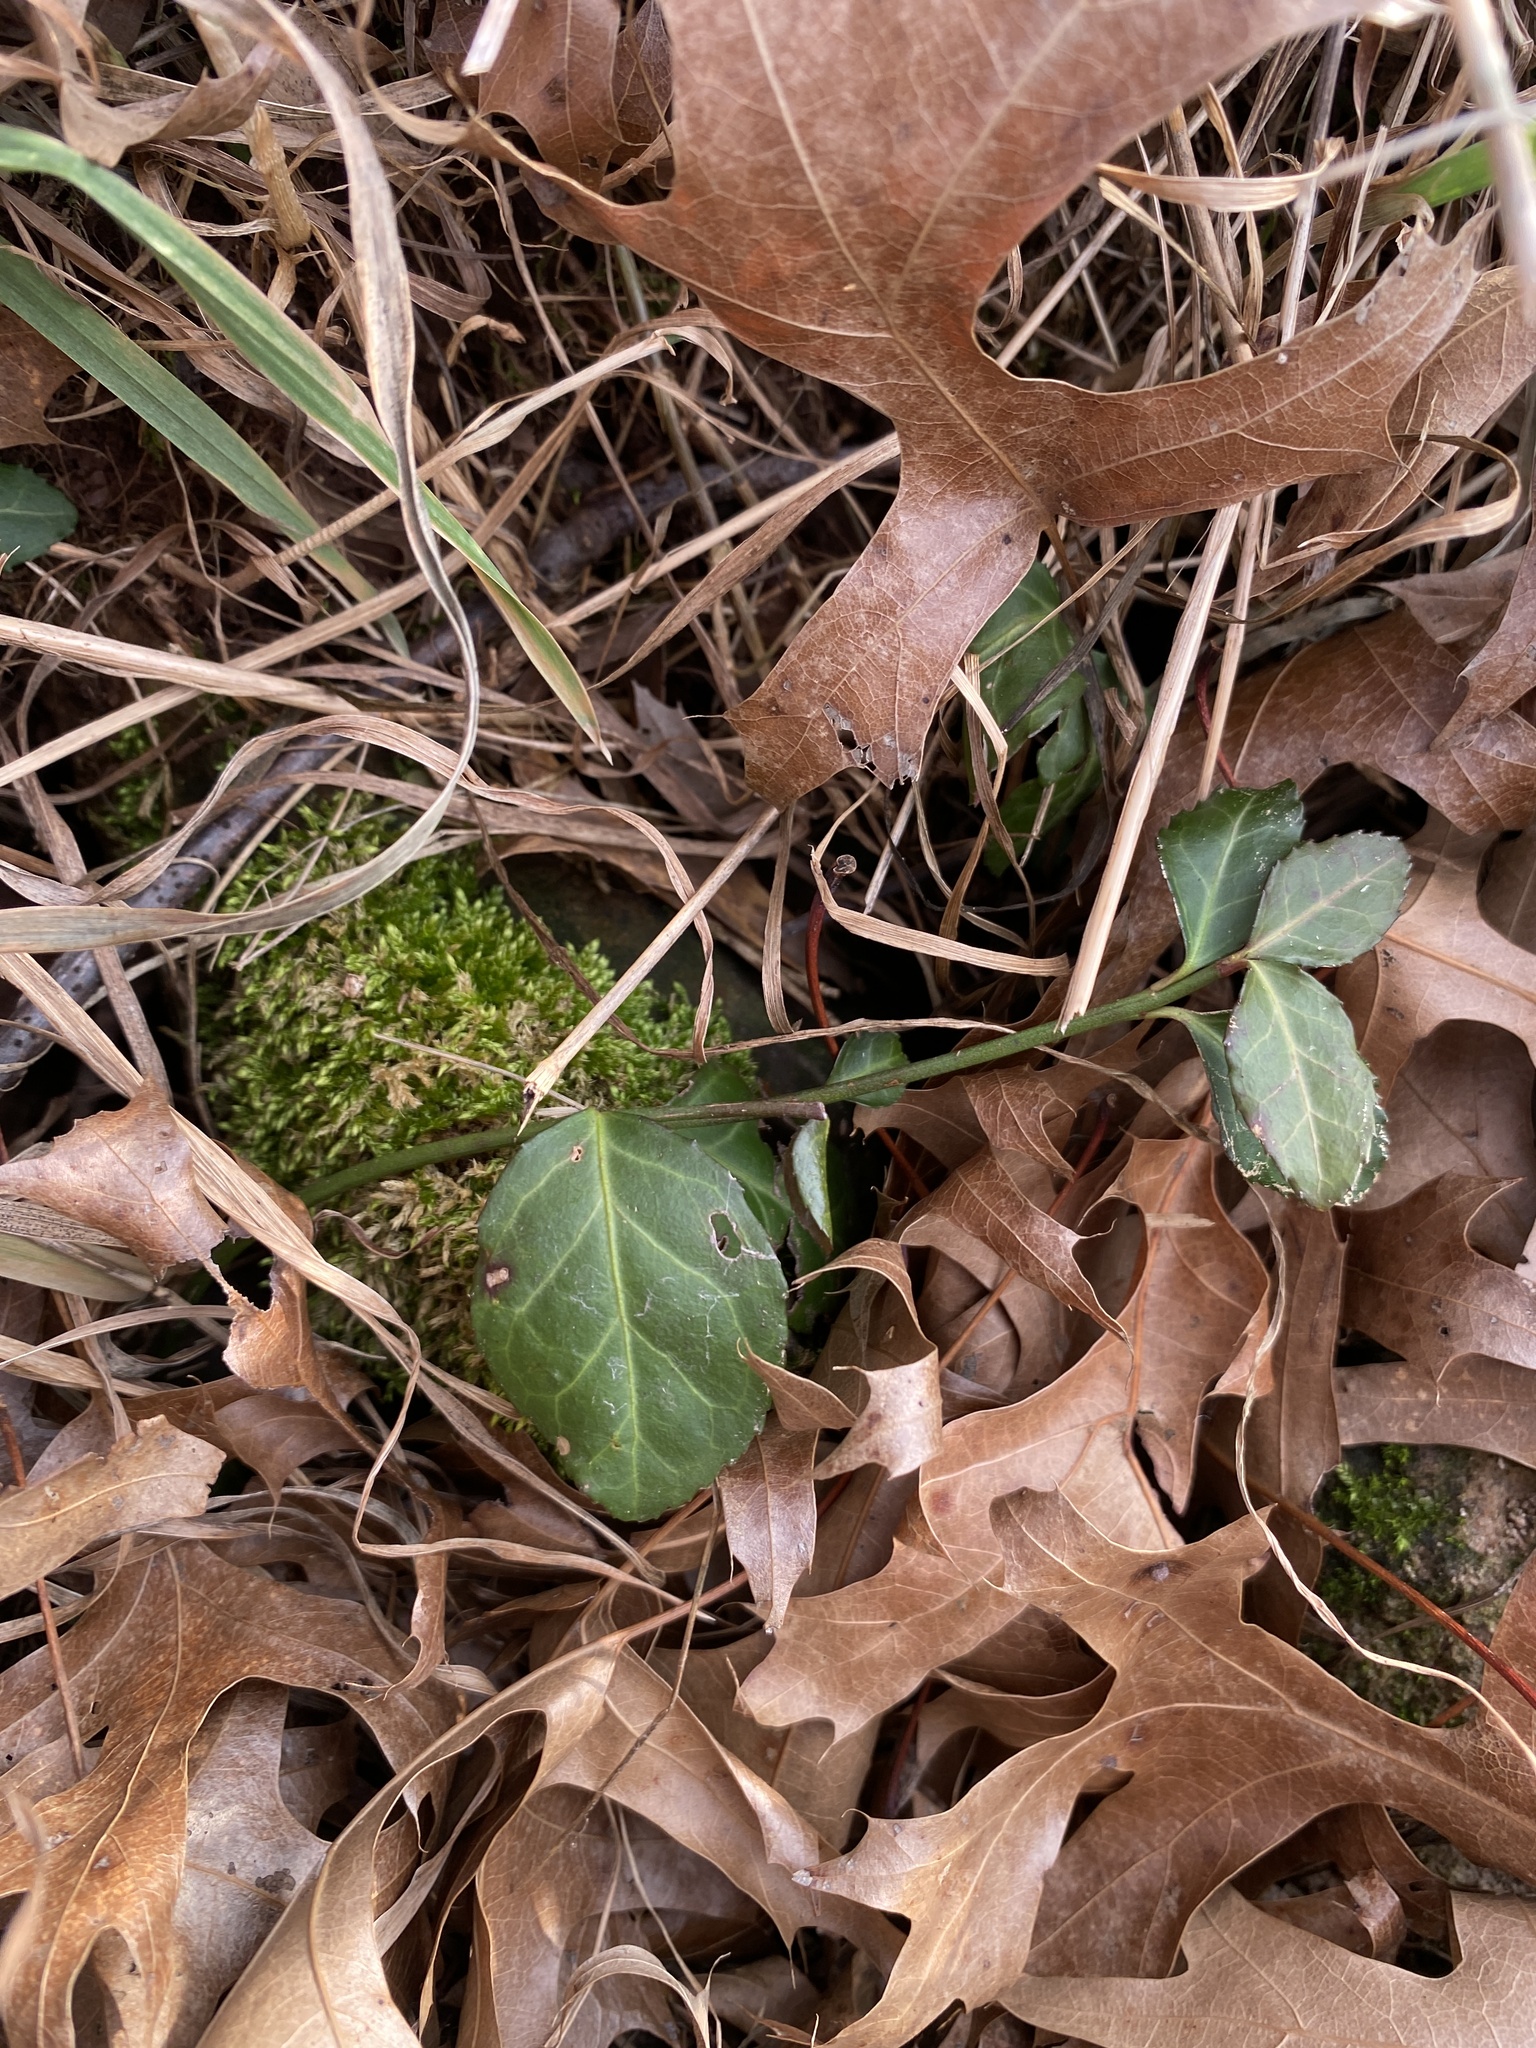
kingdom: Plantae
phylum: Tracheophyta
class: Magnoliopsida
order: Celastrales
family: Celastraceae
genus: Euonymus
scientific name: Euonymus fortunei
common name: Climbing euonymus
